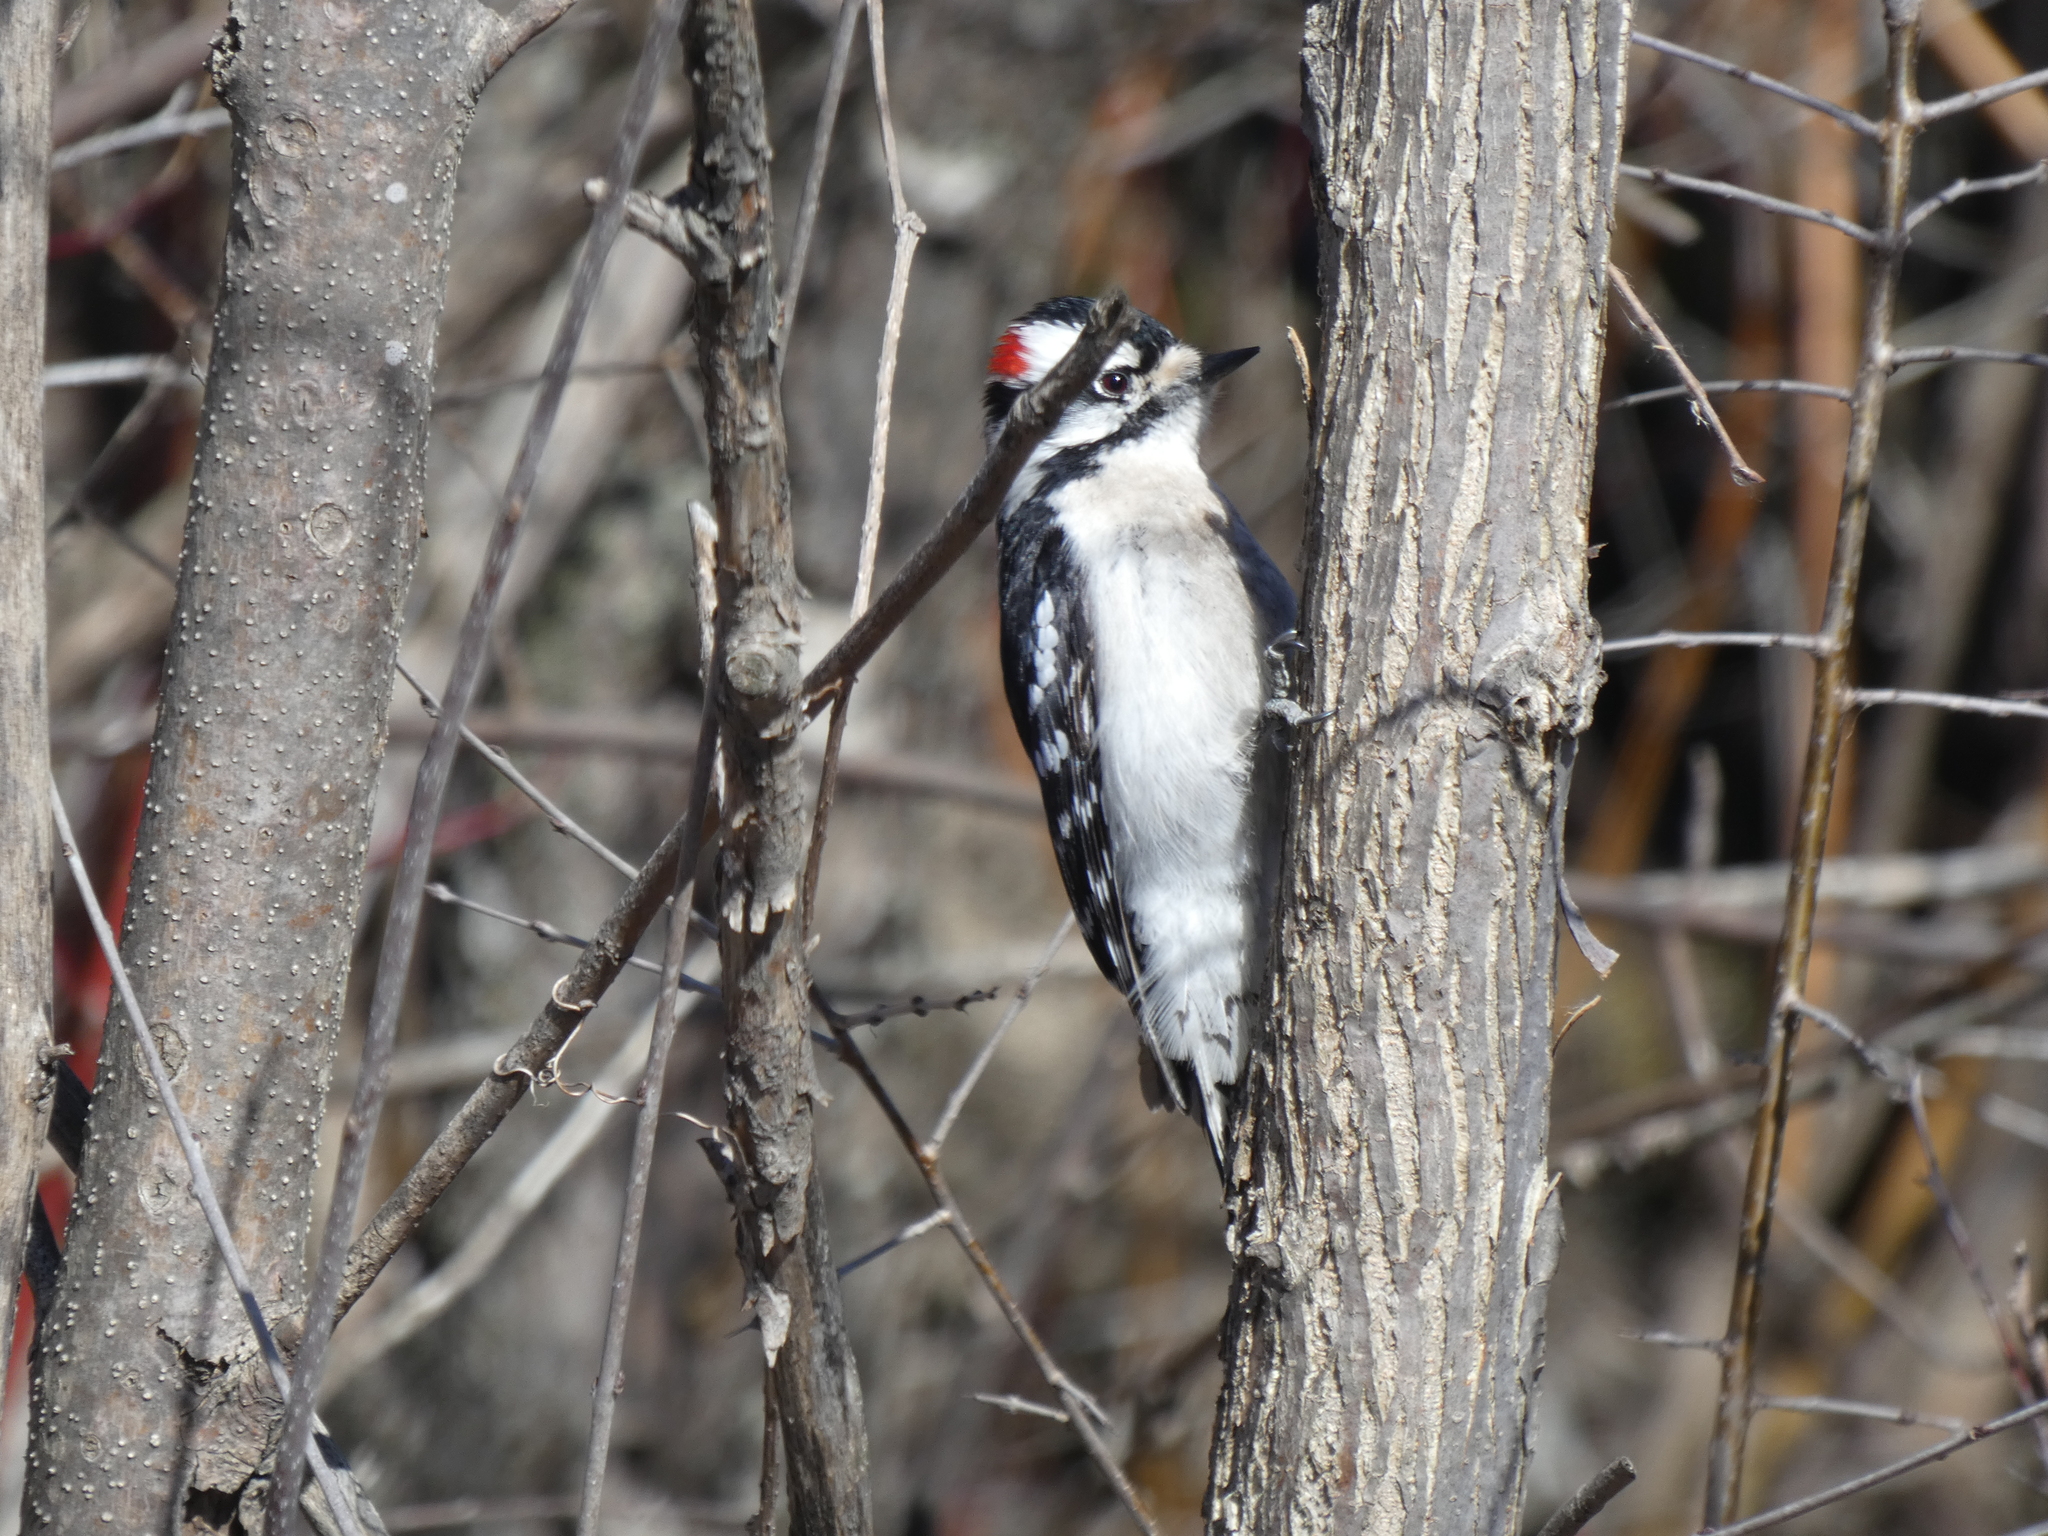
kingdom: Animalia
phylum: Chordata
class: Aves
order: Piciformes
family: Picidae
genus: Dryobates
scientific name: Dryobates pubescens
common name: Downy woodpecker
